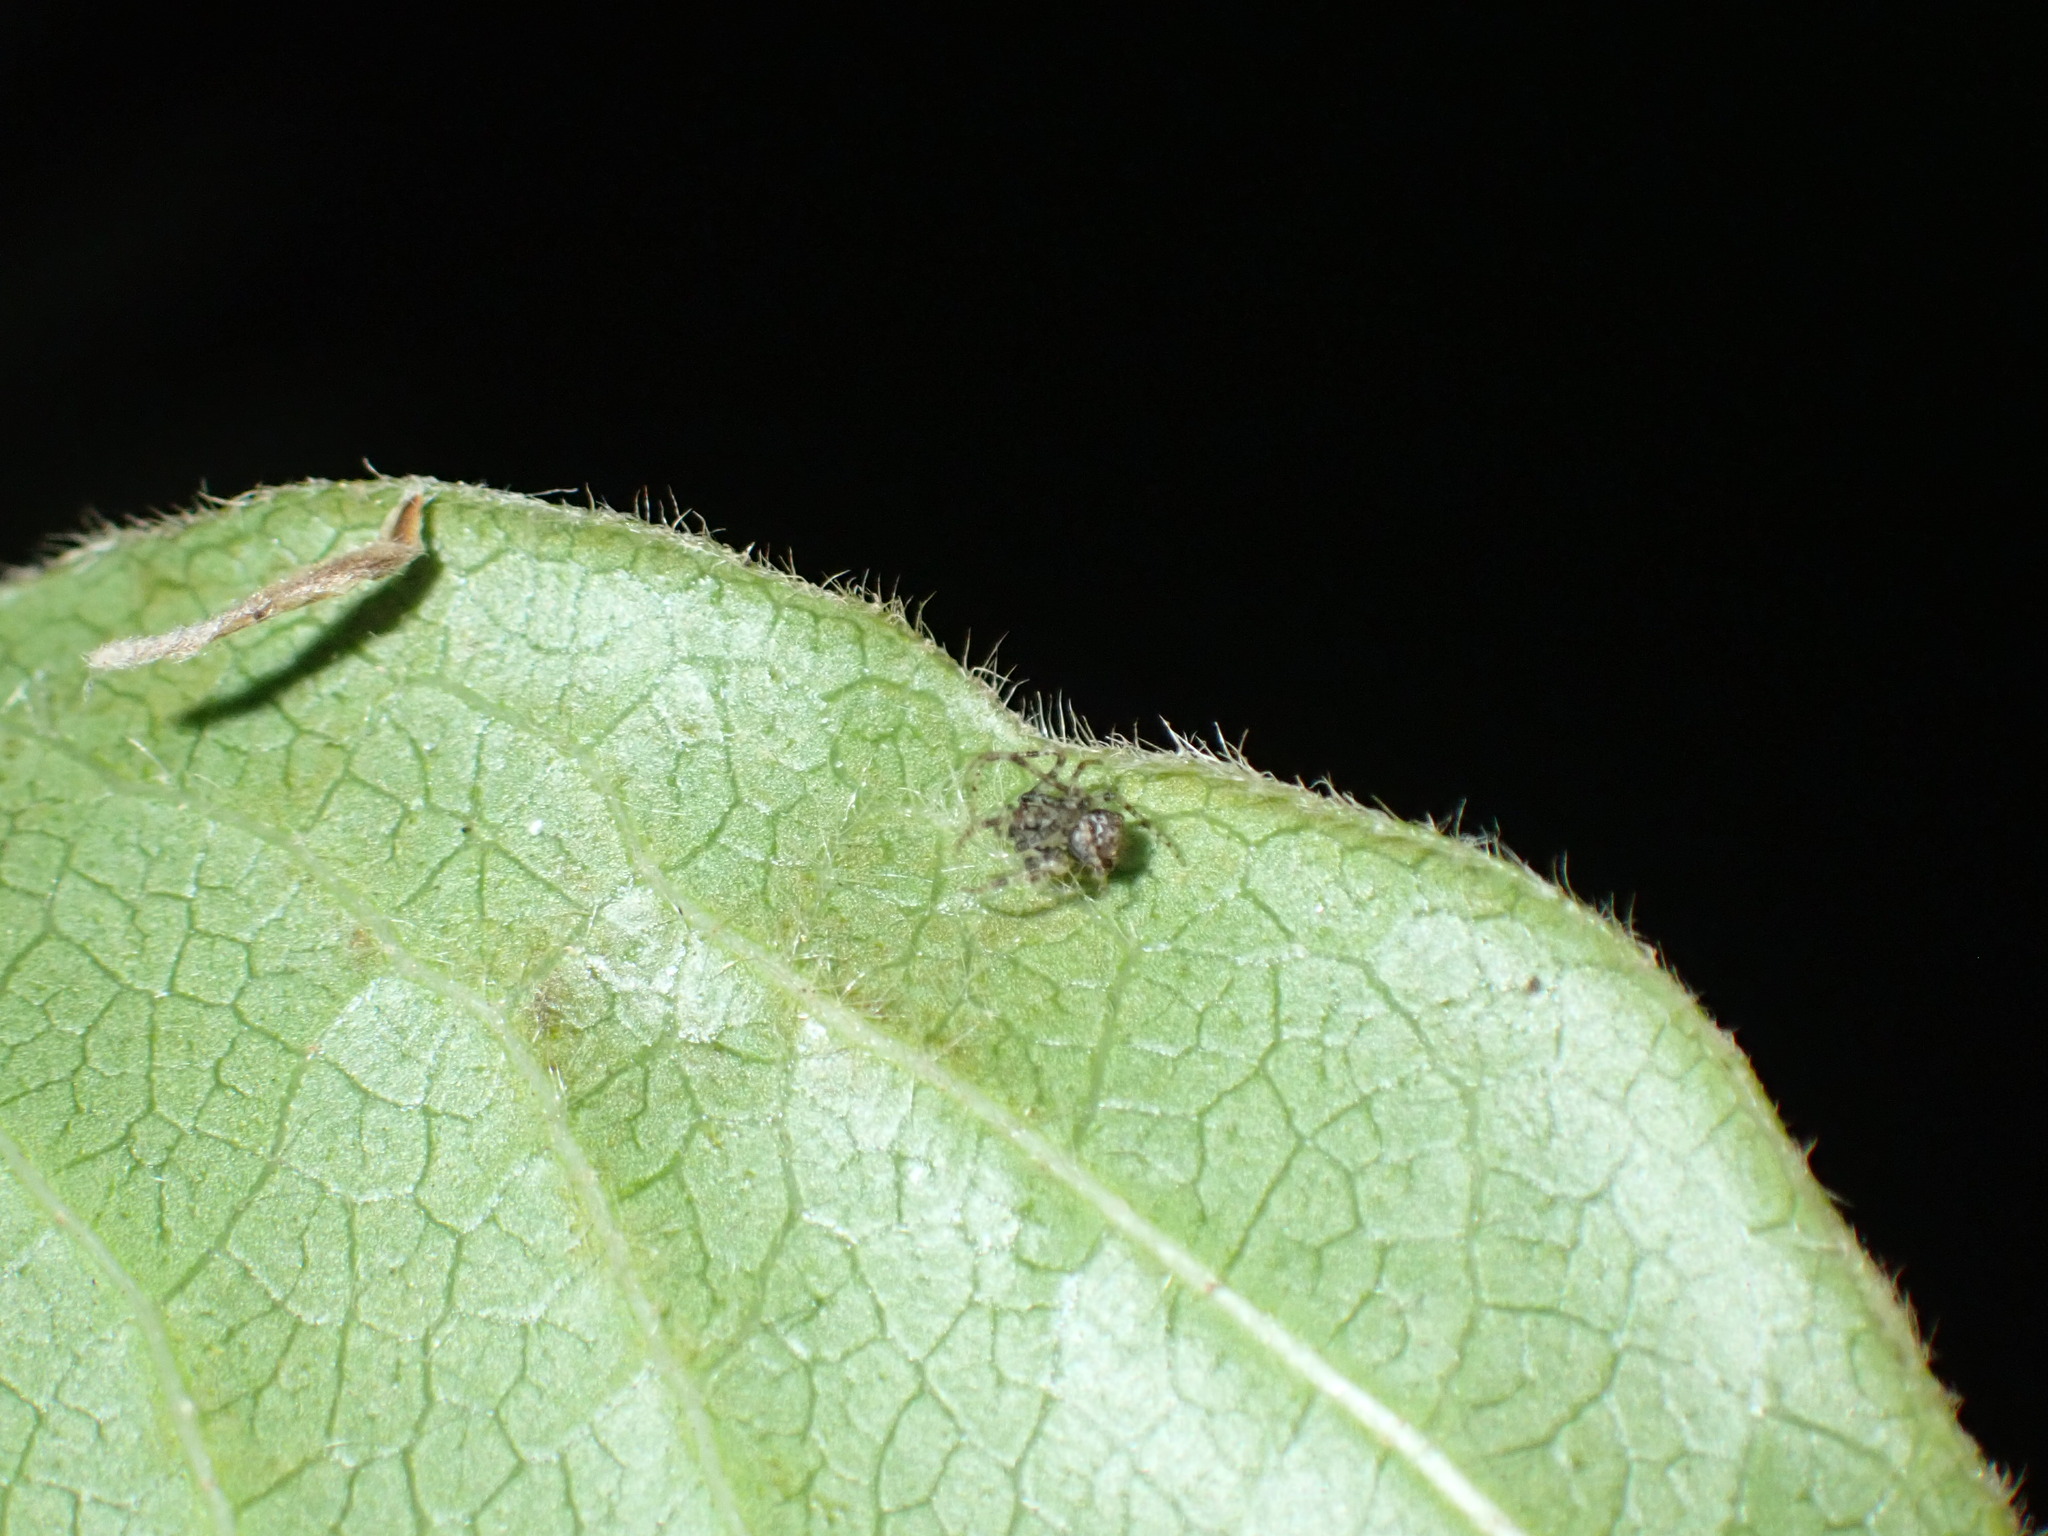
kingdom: Animalia
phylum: Arthropoda
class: Arachnida
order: Araneae
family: Mimetidae
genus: Ero
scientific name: Ero aphana
